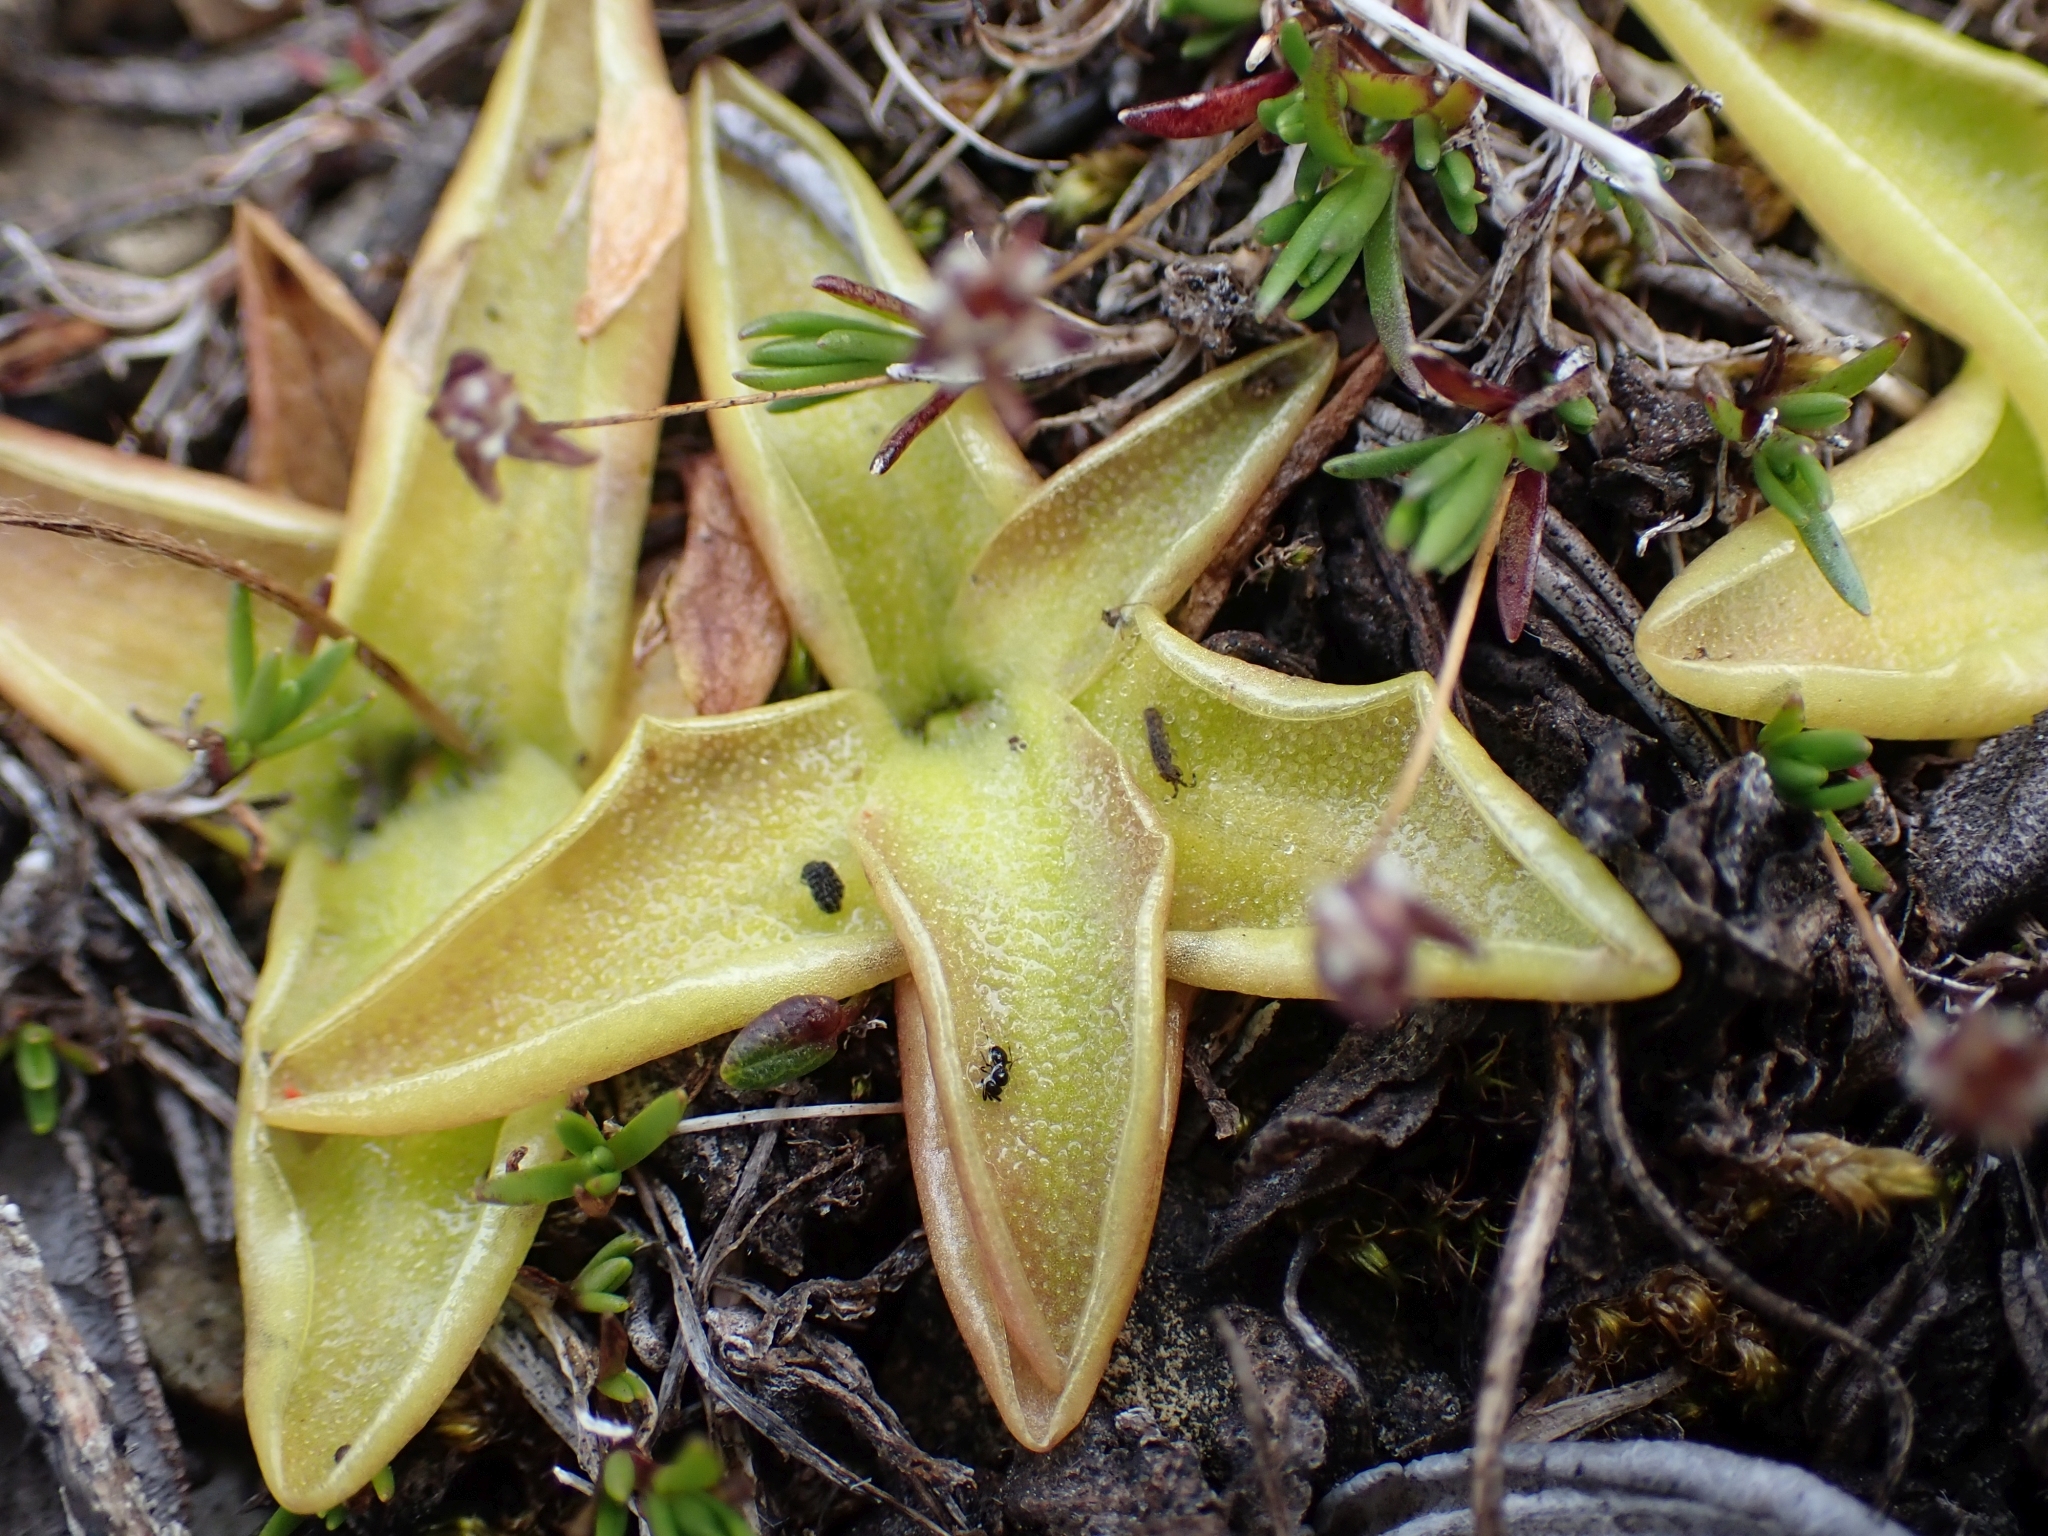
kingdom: Plantae
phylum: Tracheophyta
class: Magnoliopsida
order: Lamiales
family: Lentibulariaceae
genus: Pinguicula
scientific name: Pinguicula vulgaris
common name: Common butterwort
